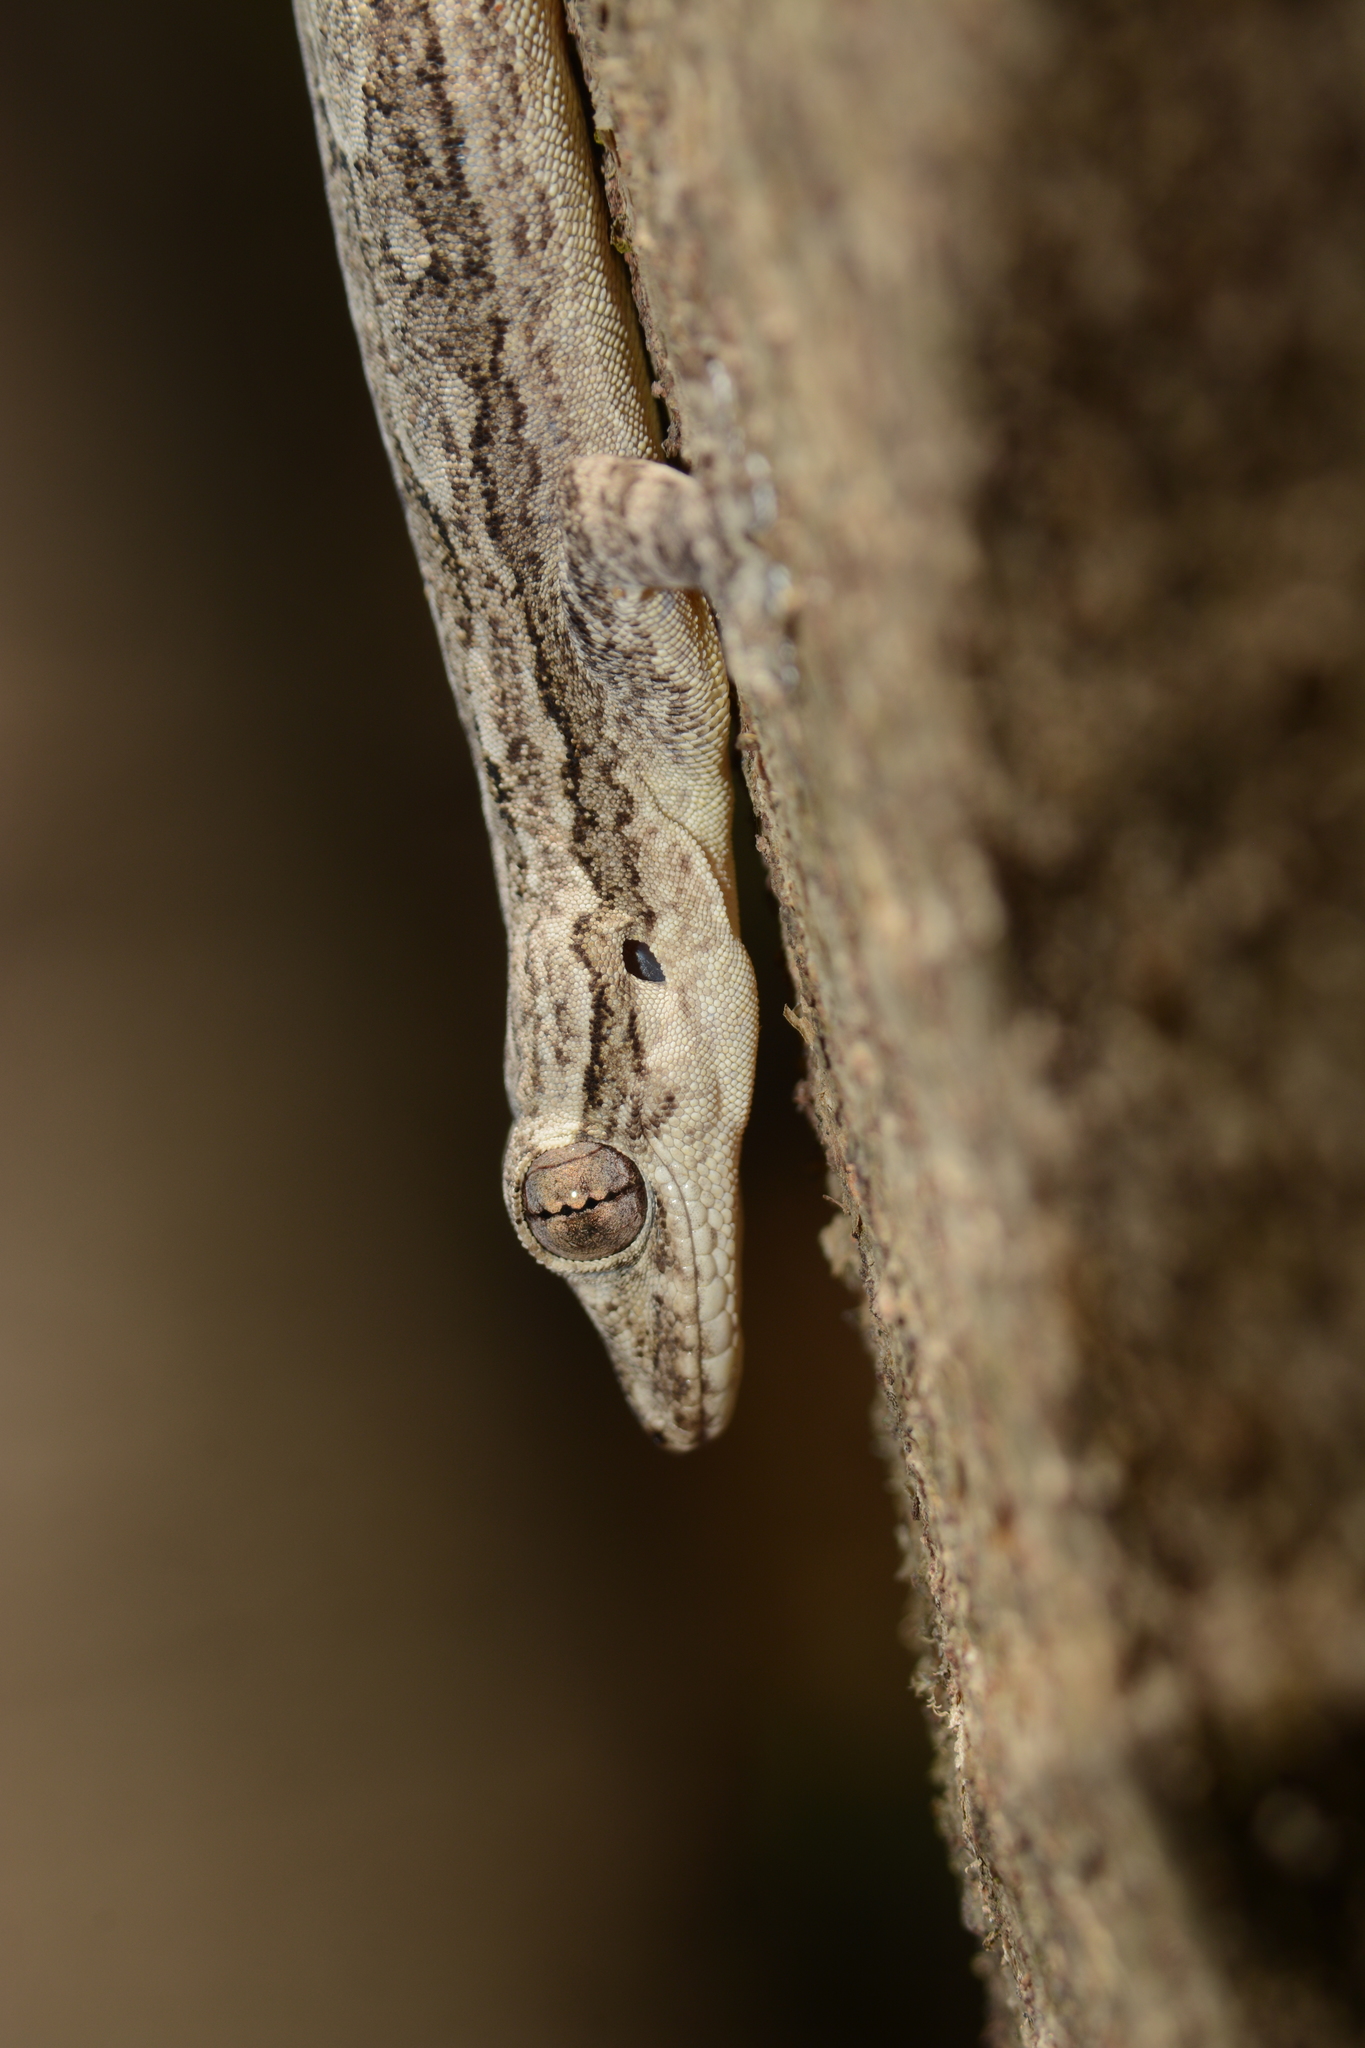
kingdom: Animalia
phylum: Chordata
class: Squamata
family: Gekkonidae
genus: Hemidactylus
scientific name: Hemidactylus leschenaultii
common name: Leschenault's leaf-toed gecko
